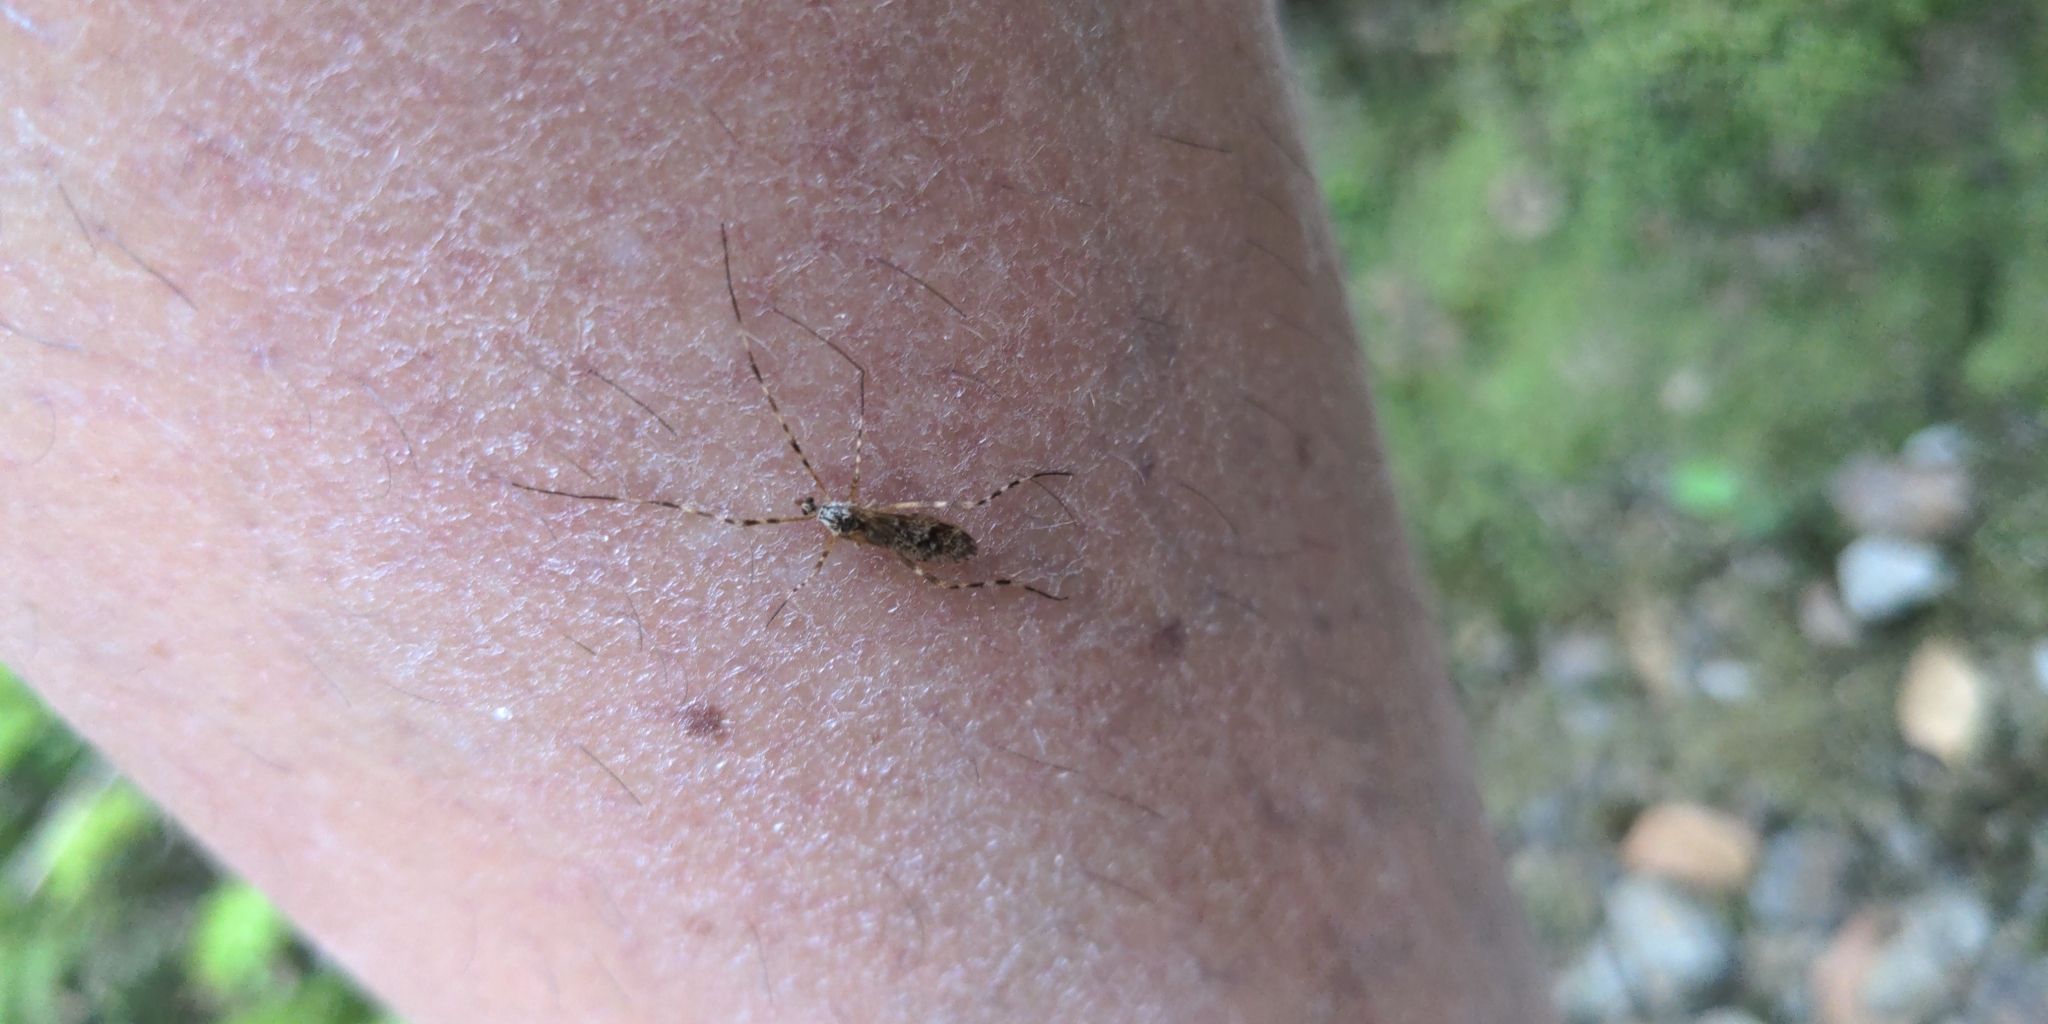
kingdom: Animalia
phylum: Arthropoda
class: Insecta
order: Diptera
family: Limoniidae
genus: Amphineurus
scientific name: Amphineurus hudsoni
